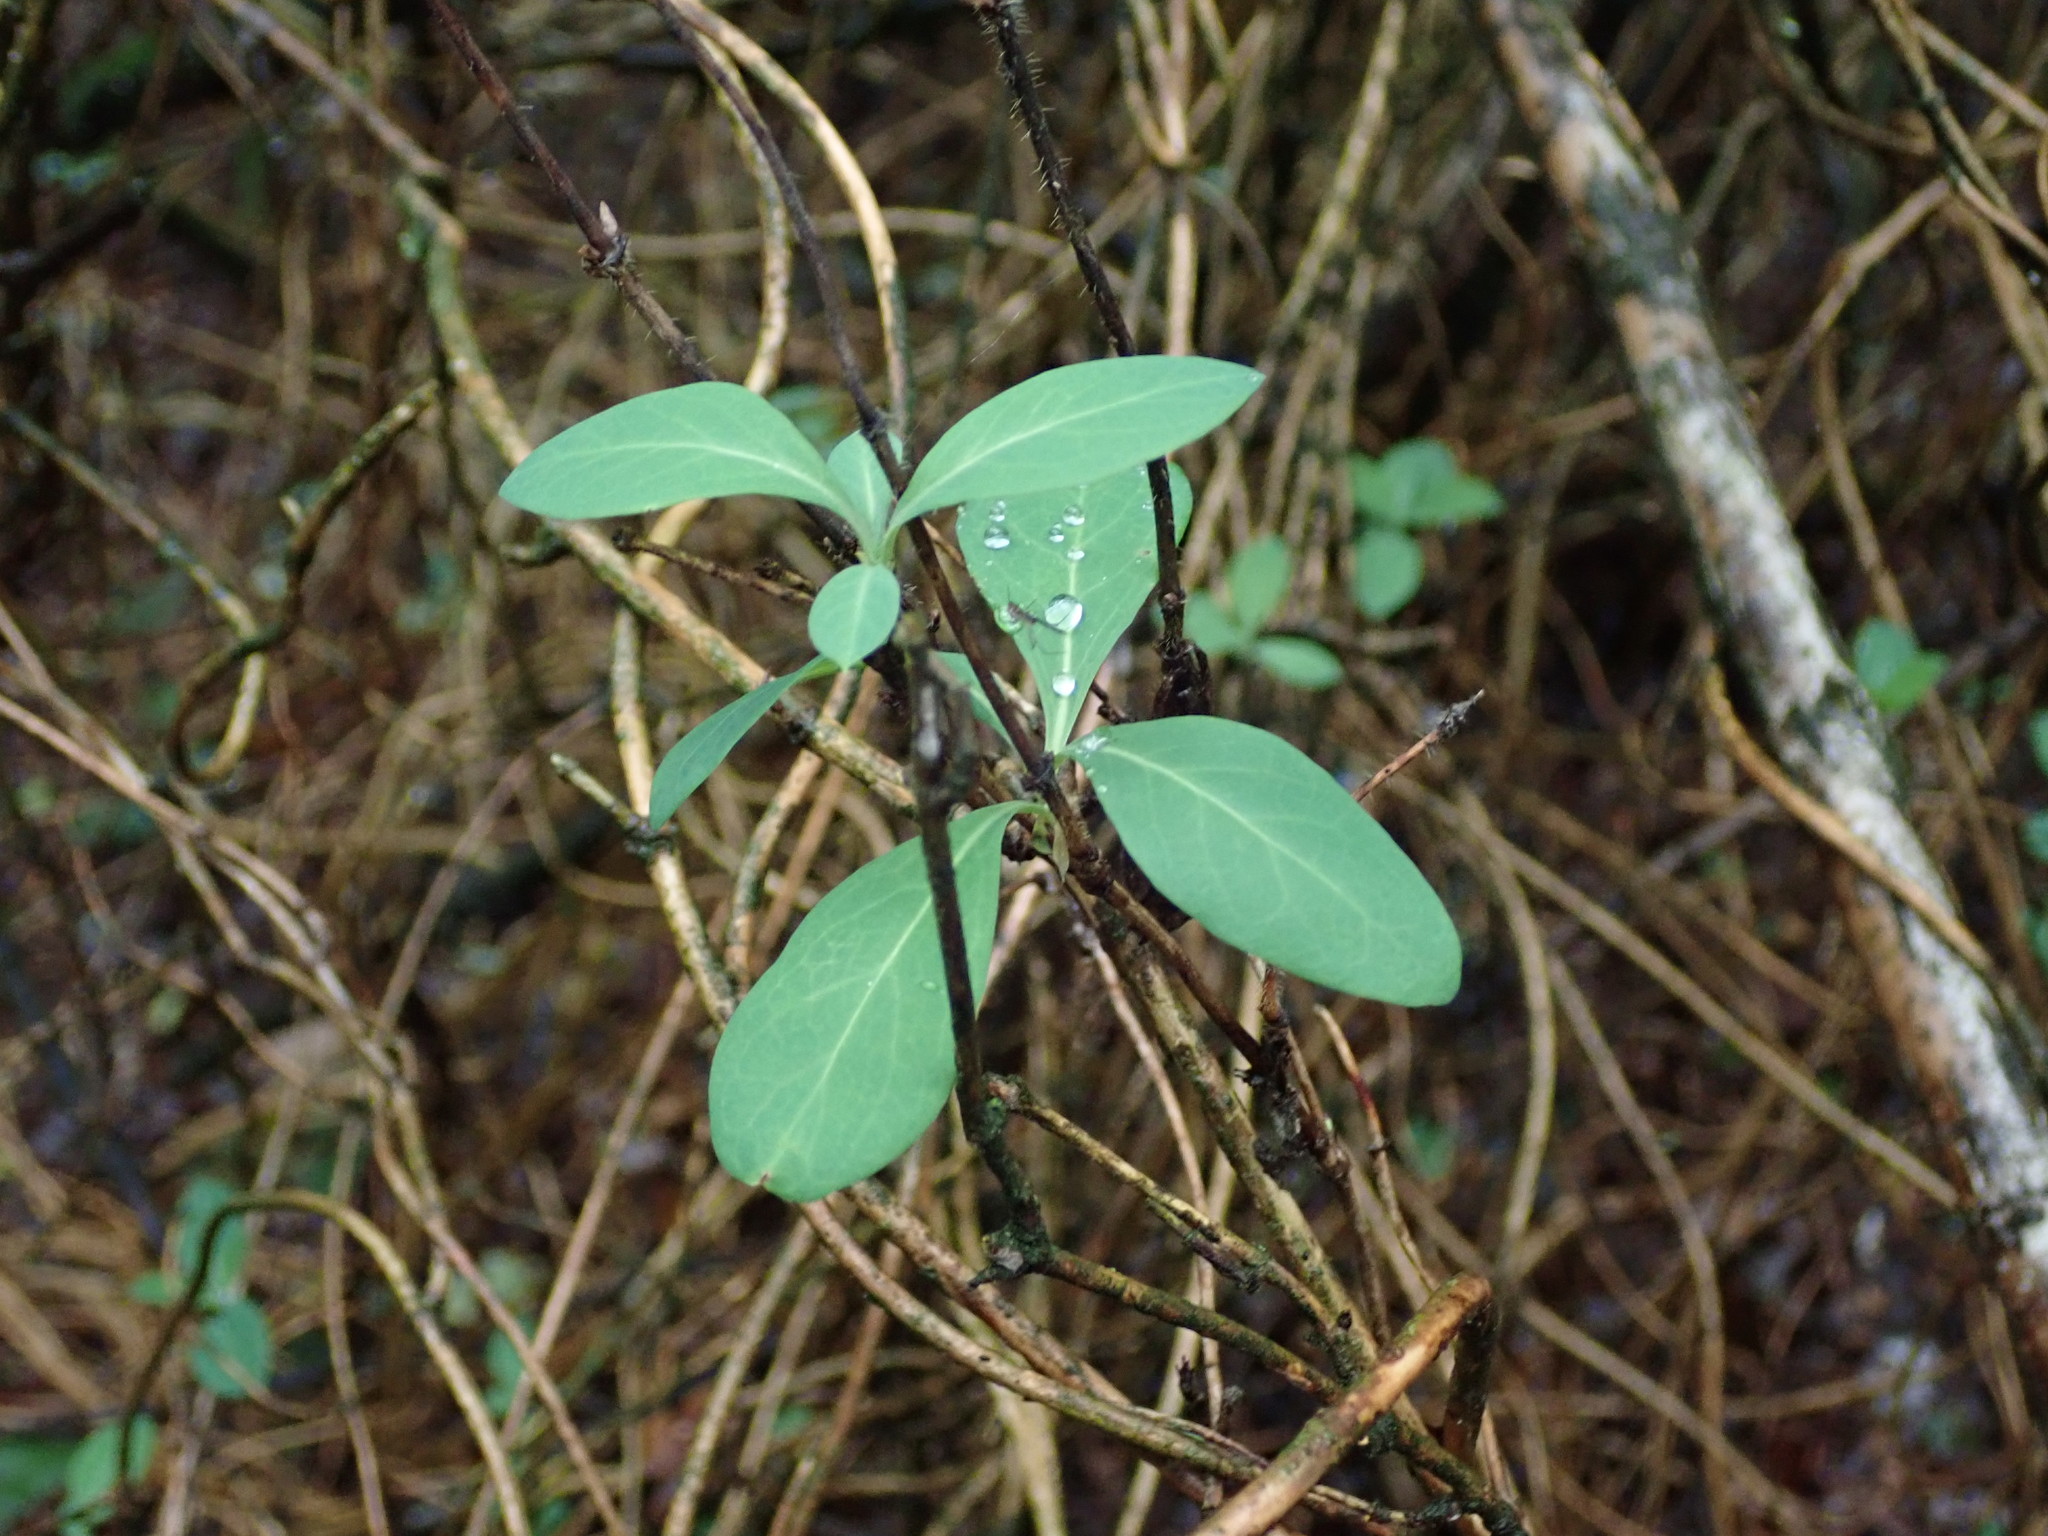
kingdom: Plantae
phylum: Tracheophyta
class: Magnoliopsida
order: Dipsacales
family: Caprifoliaceae
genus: Lonicera
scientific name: Lonicera periclymenum
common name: European honeysuckle
